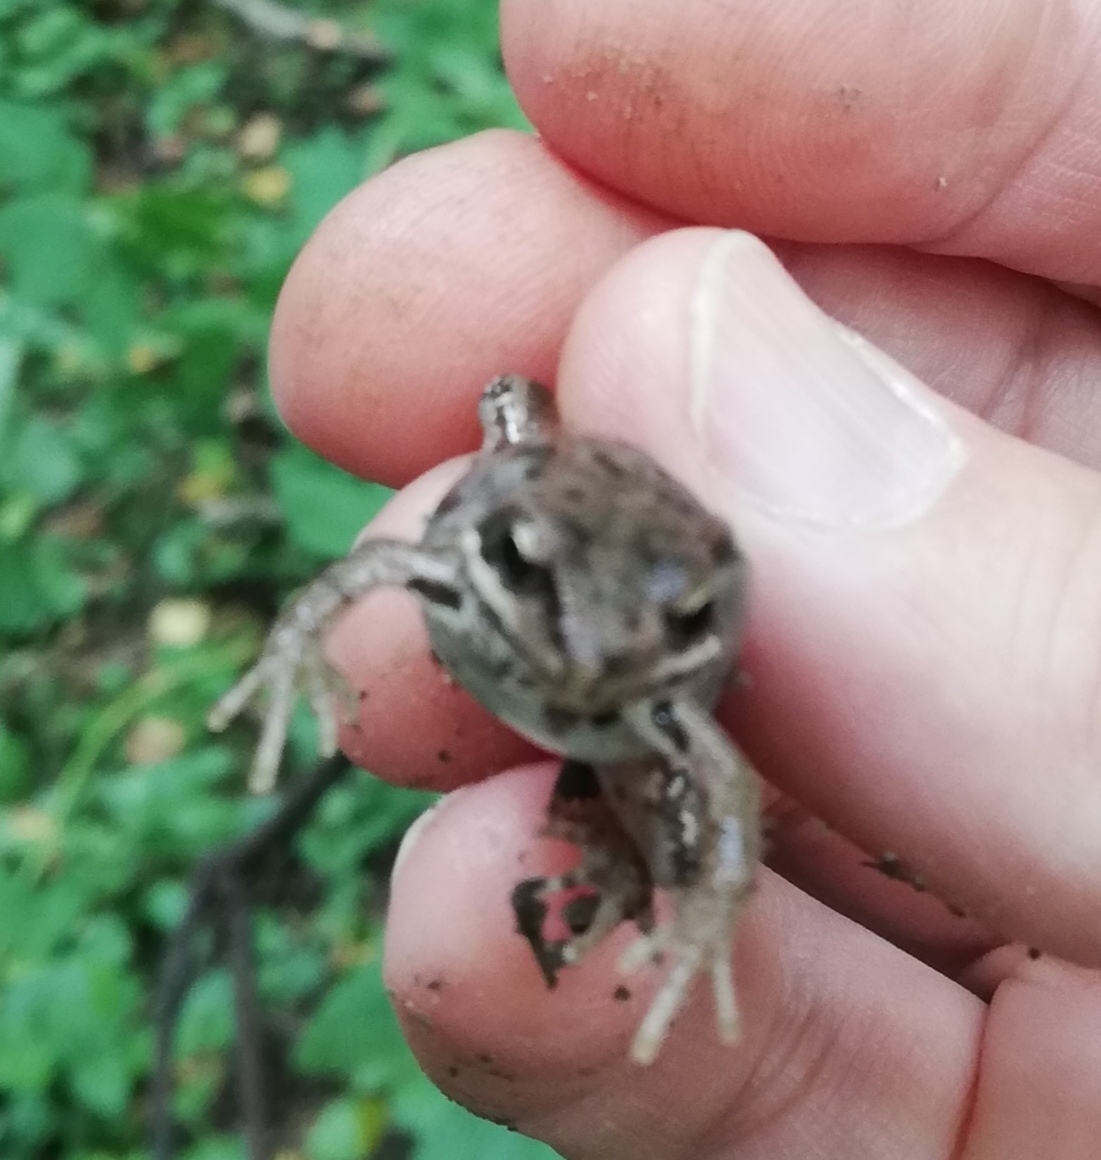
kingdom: Animalia
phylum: Chordata
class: Amphibia
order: Anura
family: Ranidae
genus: Rana
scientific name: Rana temporaria
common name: Common frog
